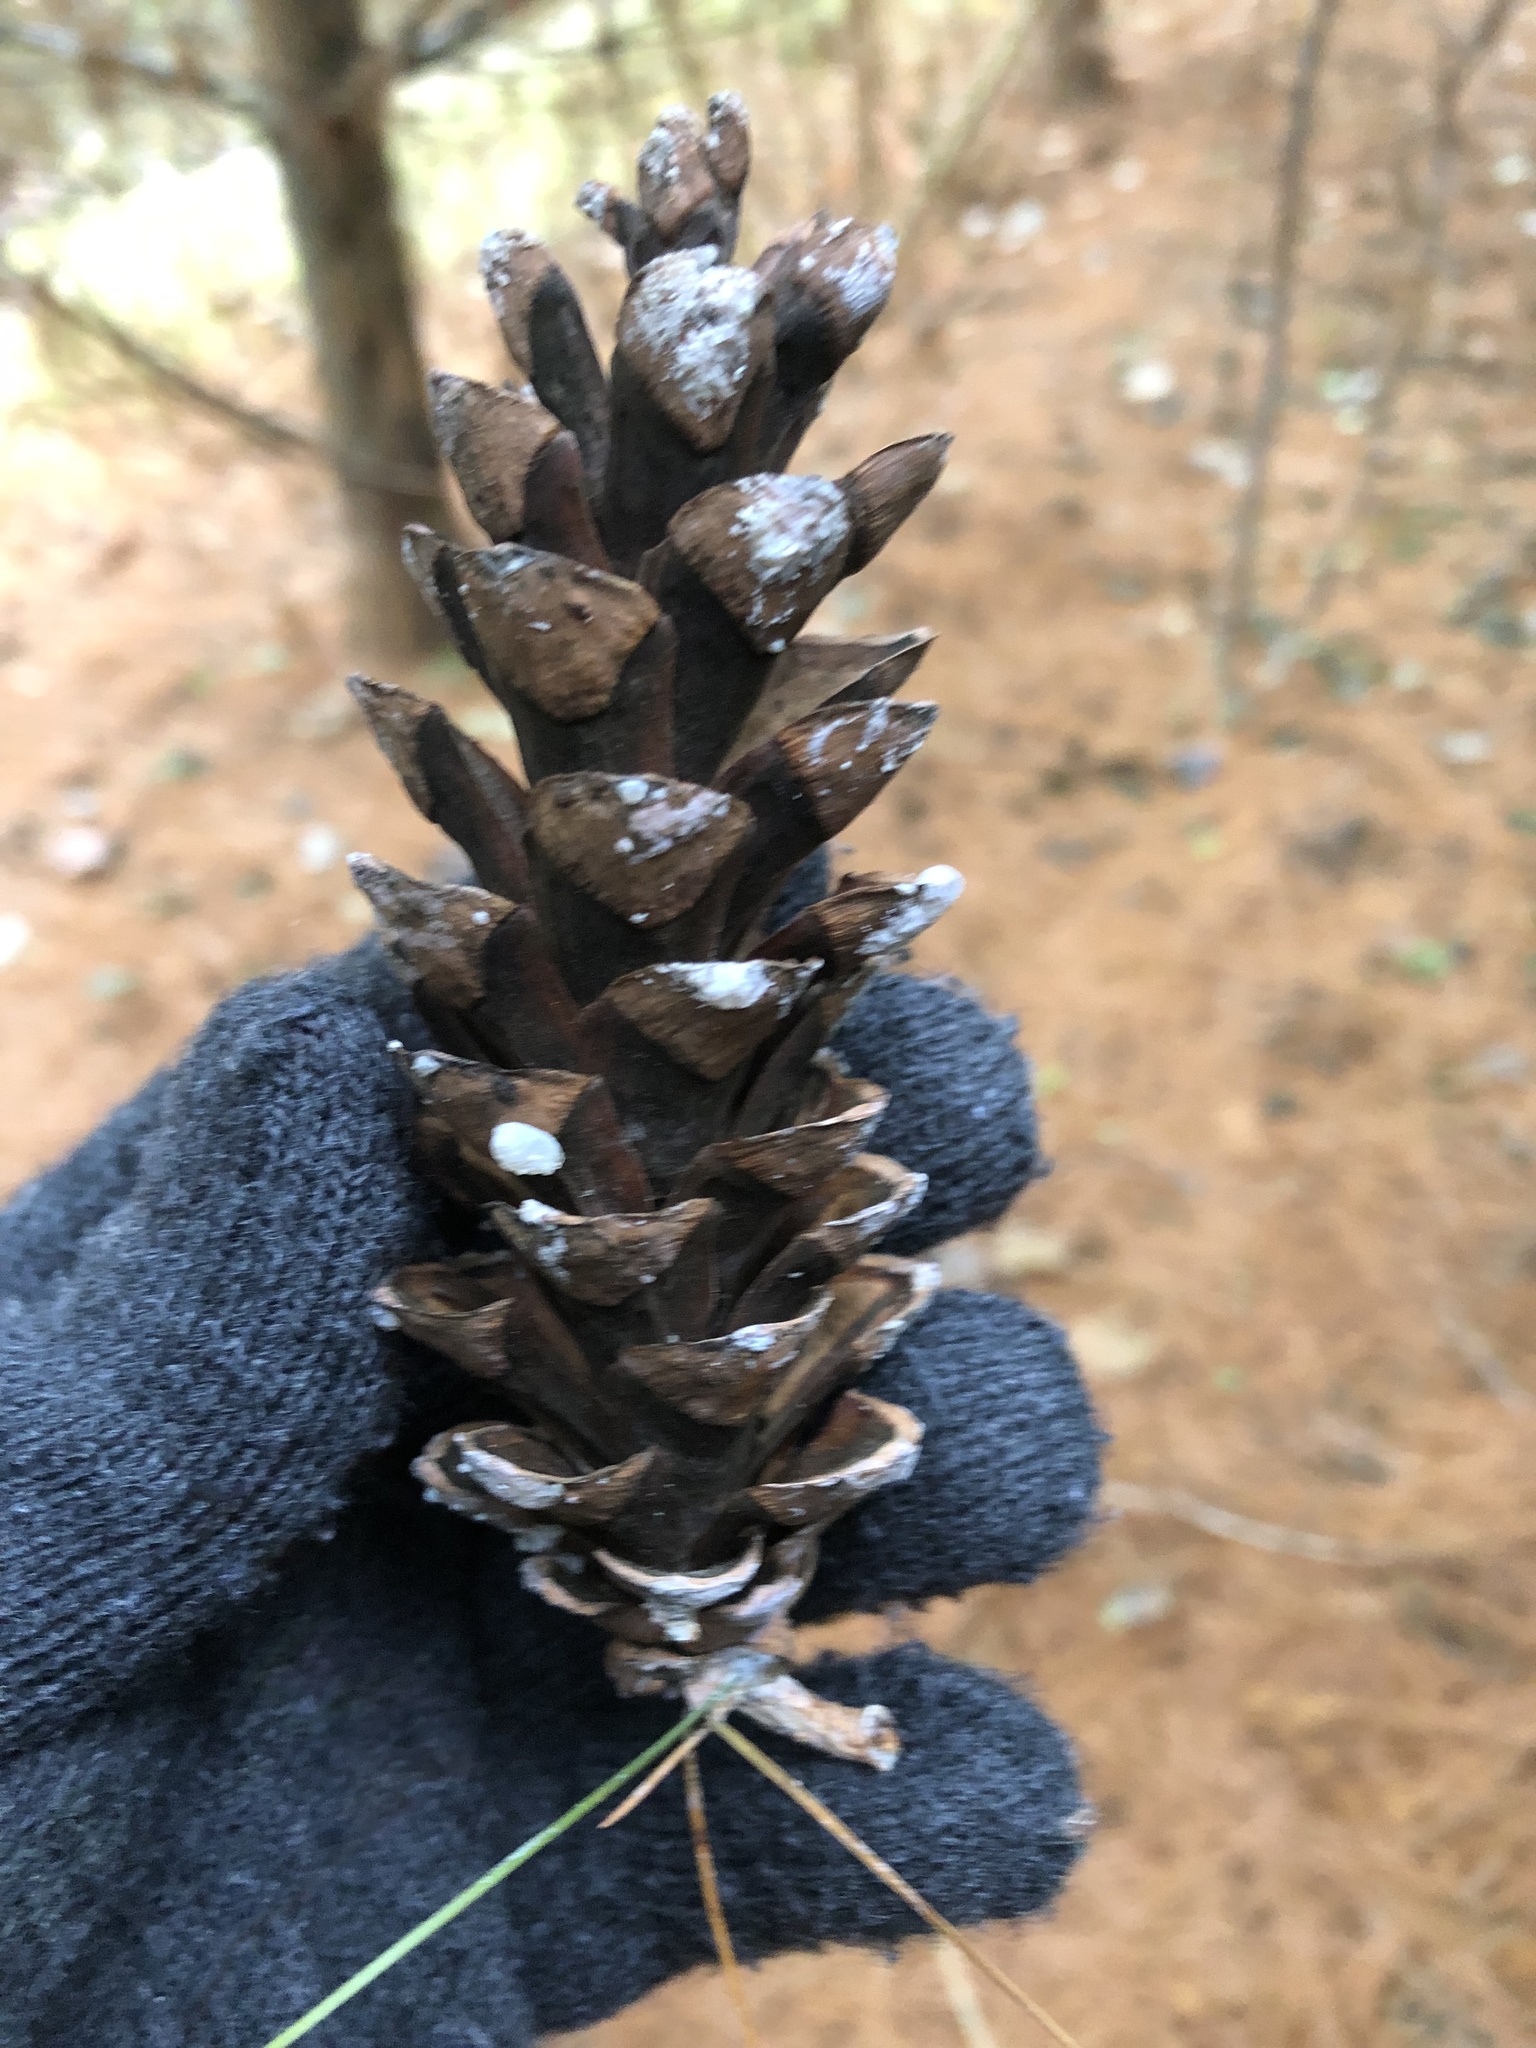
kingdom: Plantae
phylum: Tracheophyta
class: Pinopsida
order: Pinales
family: Pinaceae
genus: Pinus
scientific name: Pinus strobus
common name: Weymouth pine
